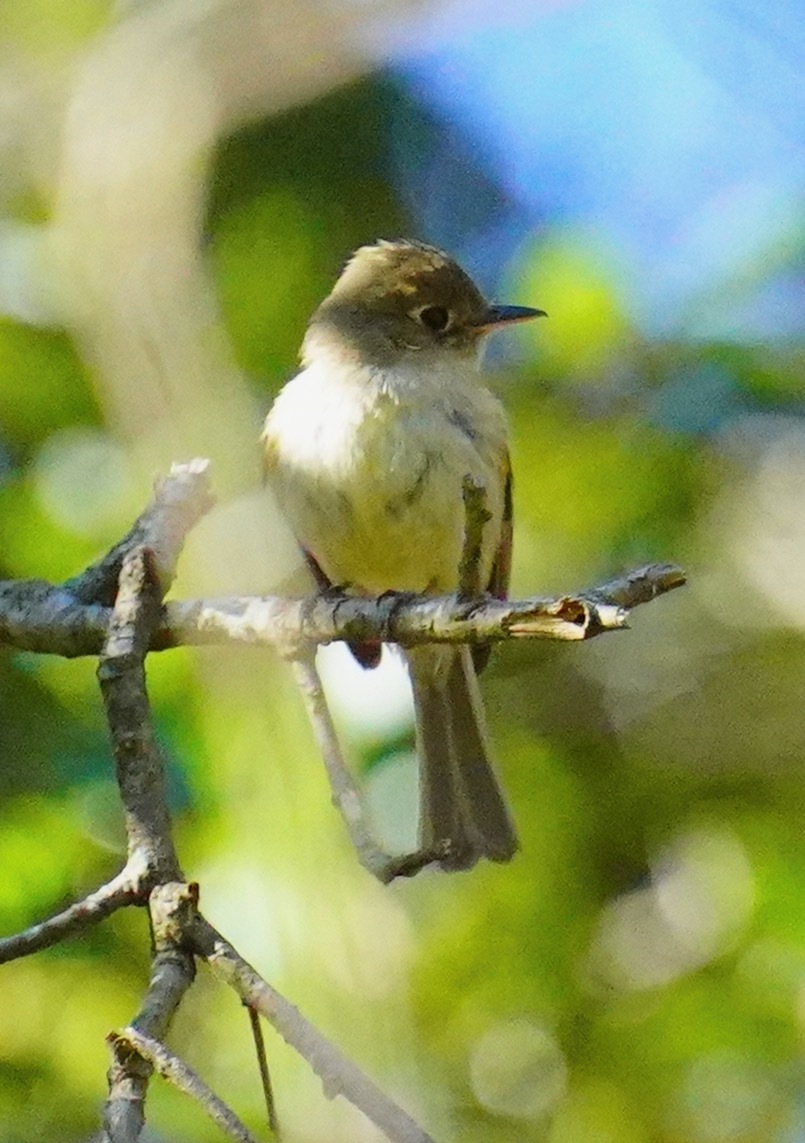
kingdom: Animalia
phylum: Chordata
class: Aves
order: Passeriformes
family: Tyrannidae
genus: Empidonax
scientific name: Empidonax difficilis
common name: Pacific-slope flycatcher
